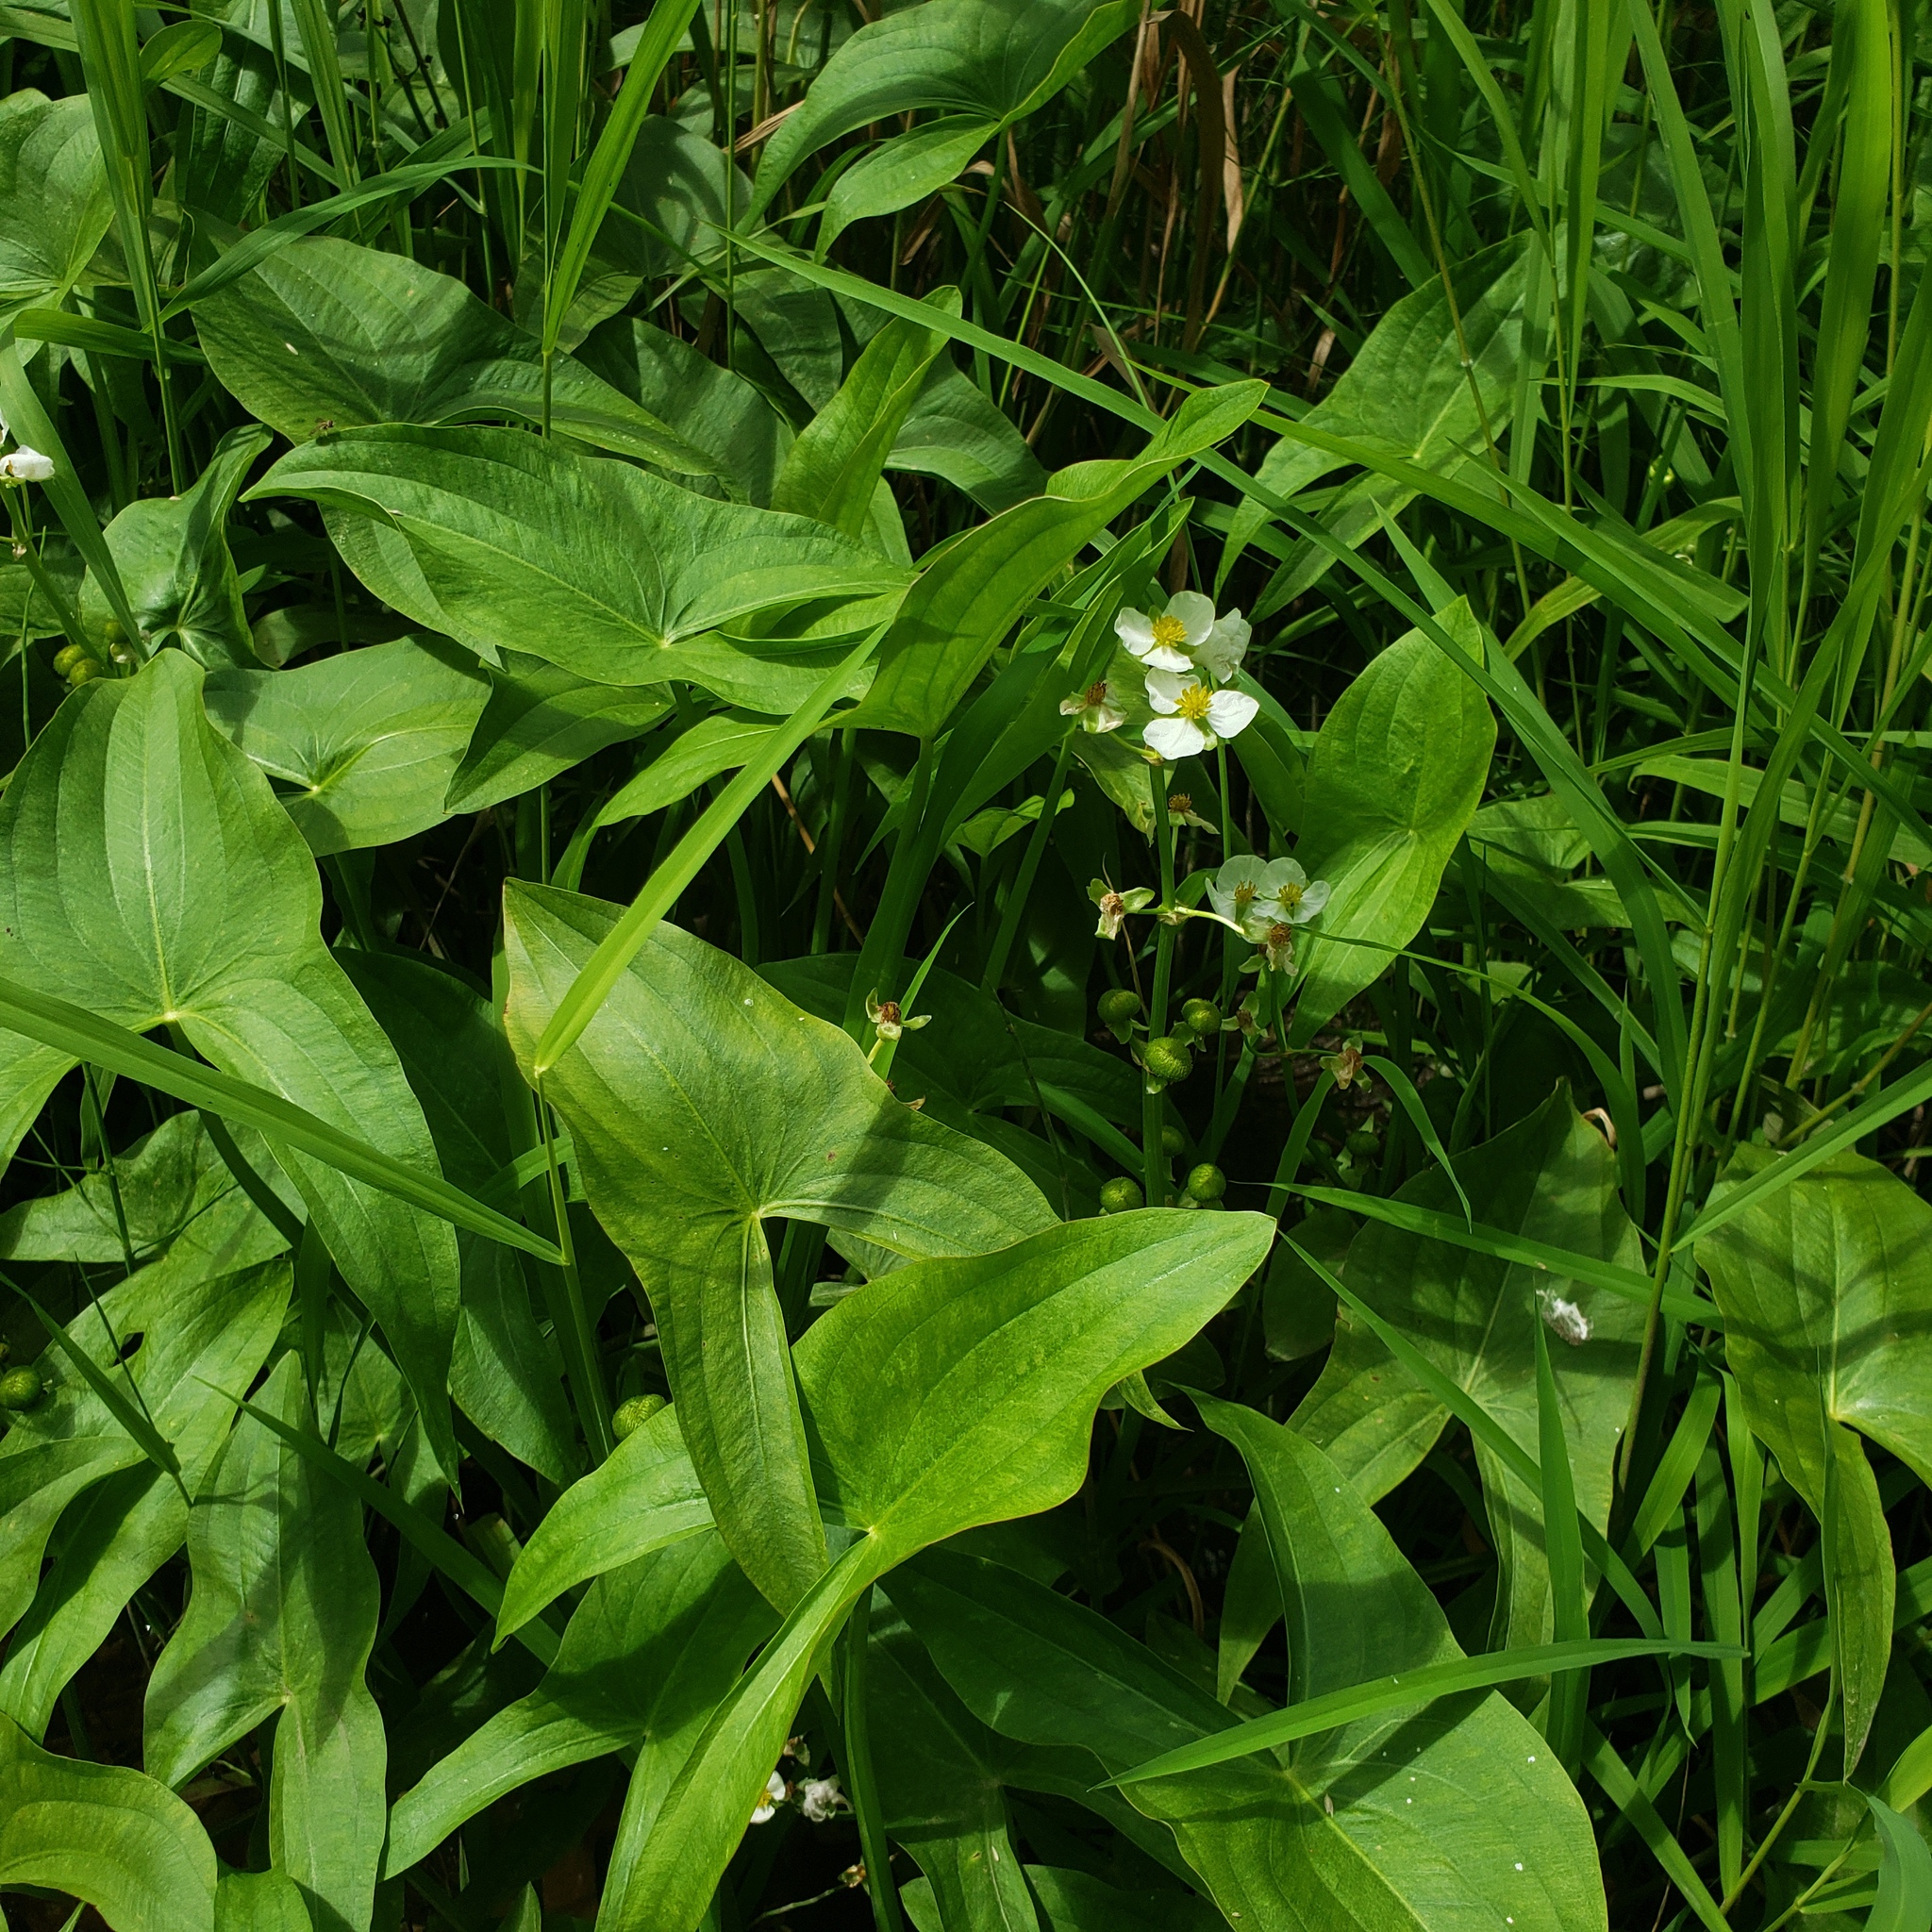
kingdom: Plantae
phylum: Tracheophyta
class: Liliopsida
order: Alismatales
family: Alismataceae
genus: Sagittaria
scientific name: Sagittaria latifolia
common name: Duck-potato
